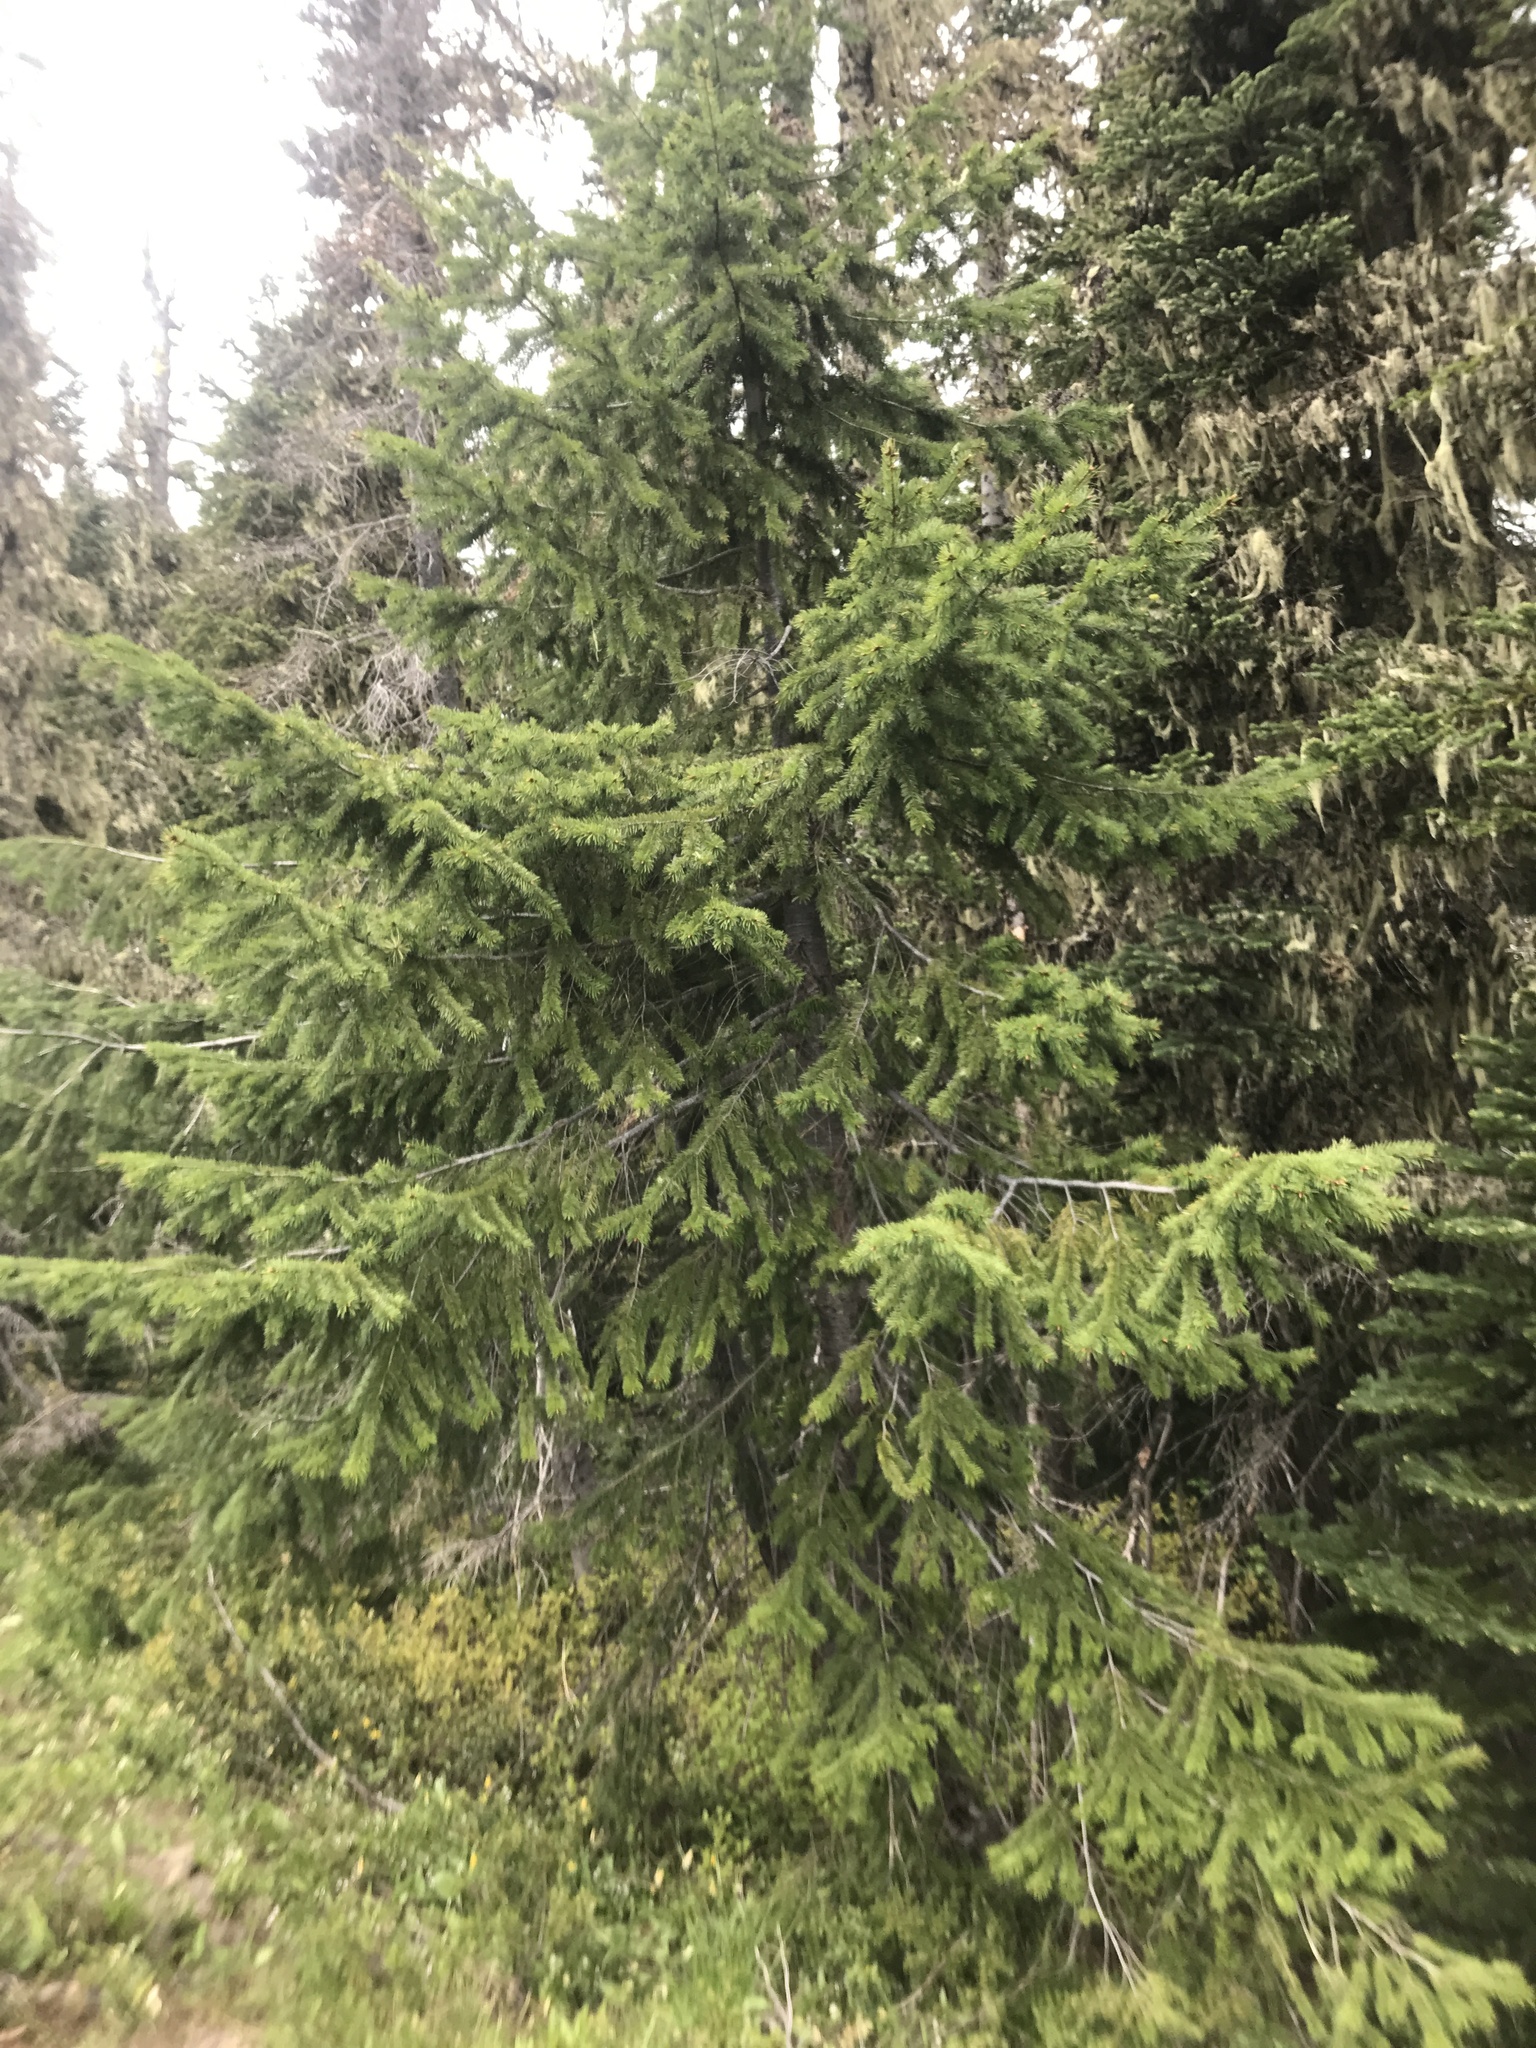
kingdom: Plantae
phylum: Tracheophyta
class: Pinopsida
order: Pinales
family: Pinaceae
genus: Pseudotsuga
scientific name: Pseudotsuga menziesii
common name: Douglas fir
